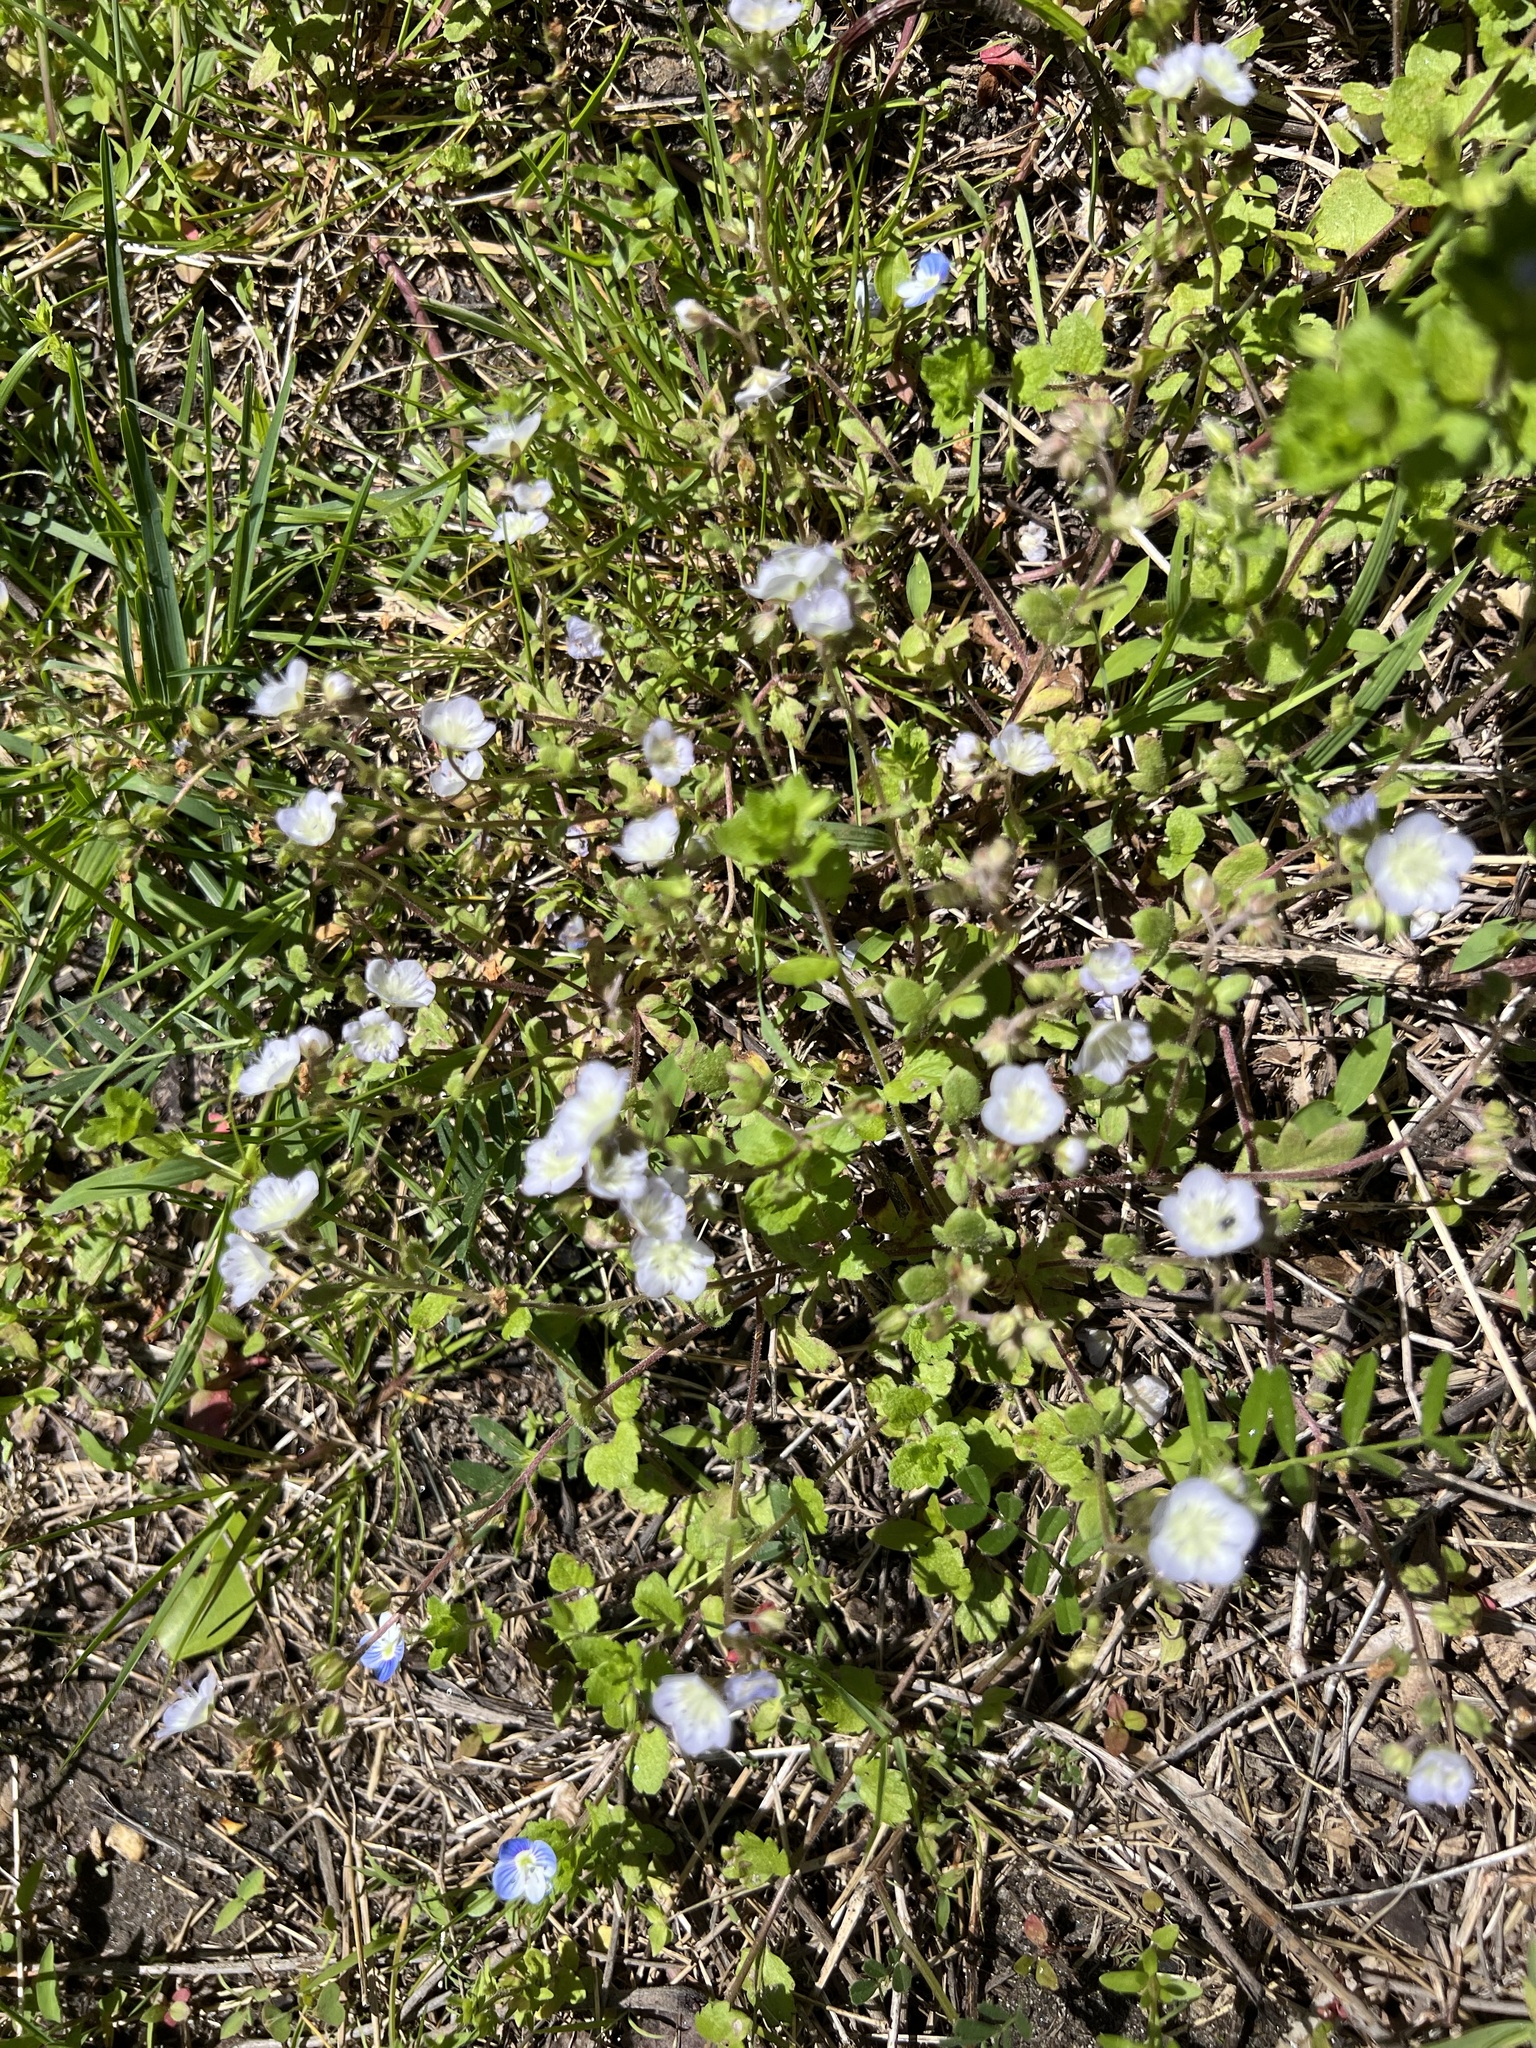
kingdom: Plantae
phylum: Tracheophyta
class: Magnoliopsida
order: Boraginales
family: Hydrophyllaceae
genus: Phacelia
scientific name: Phacelia dubia
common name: Appalachian phacelia
